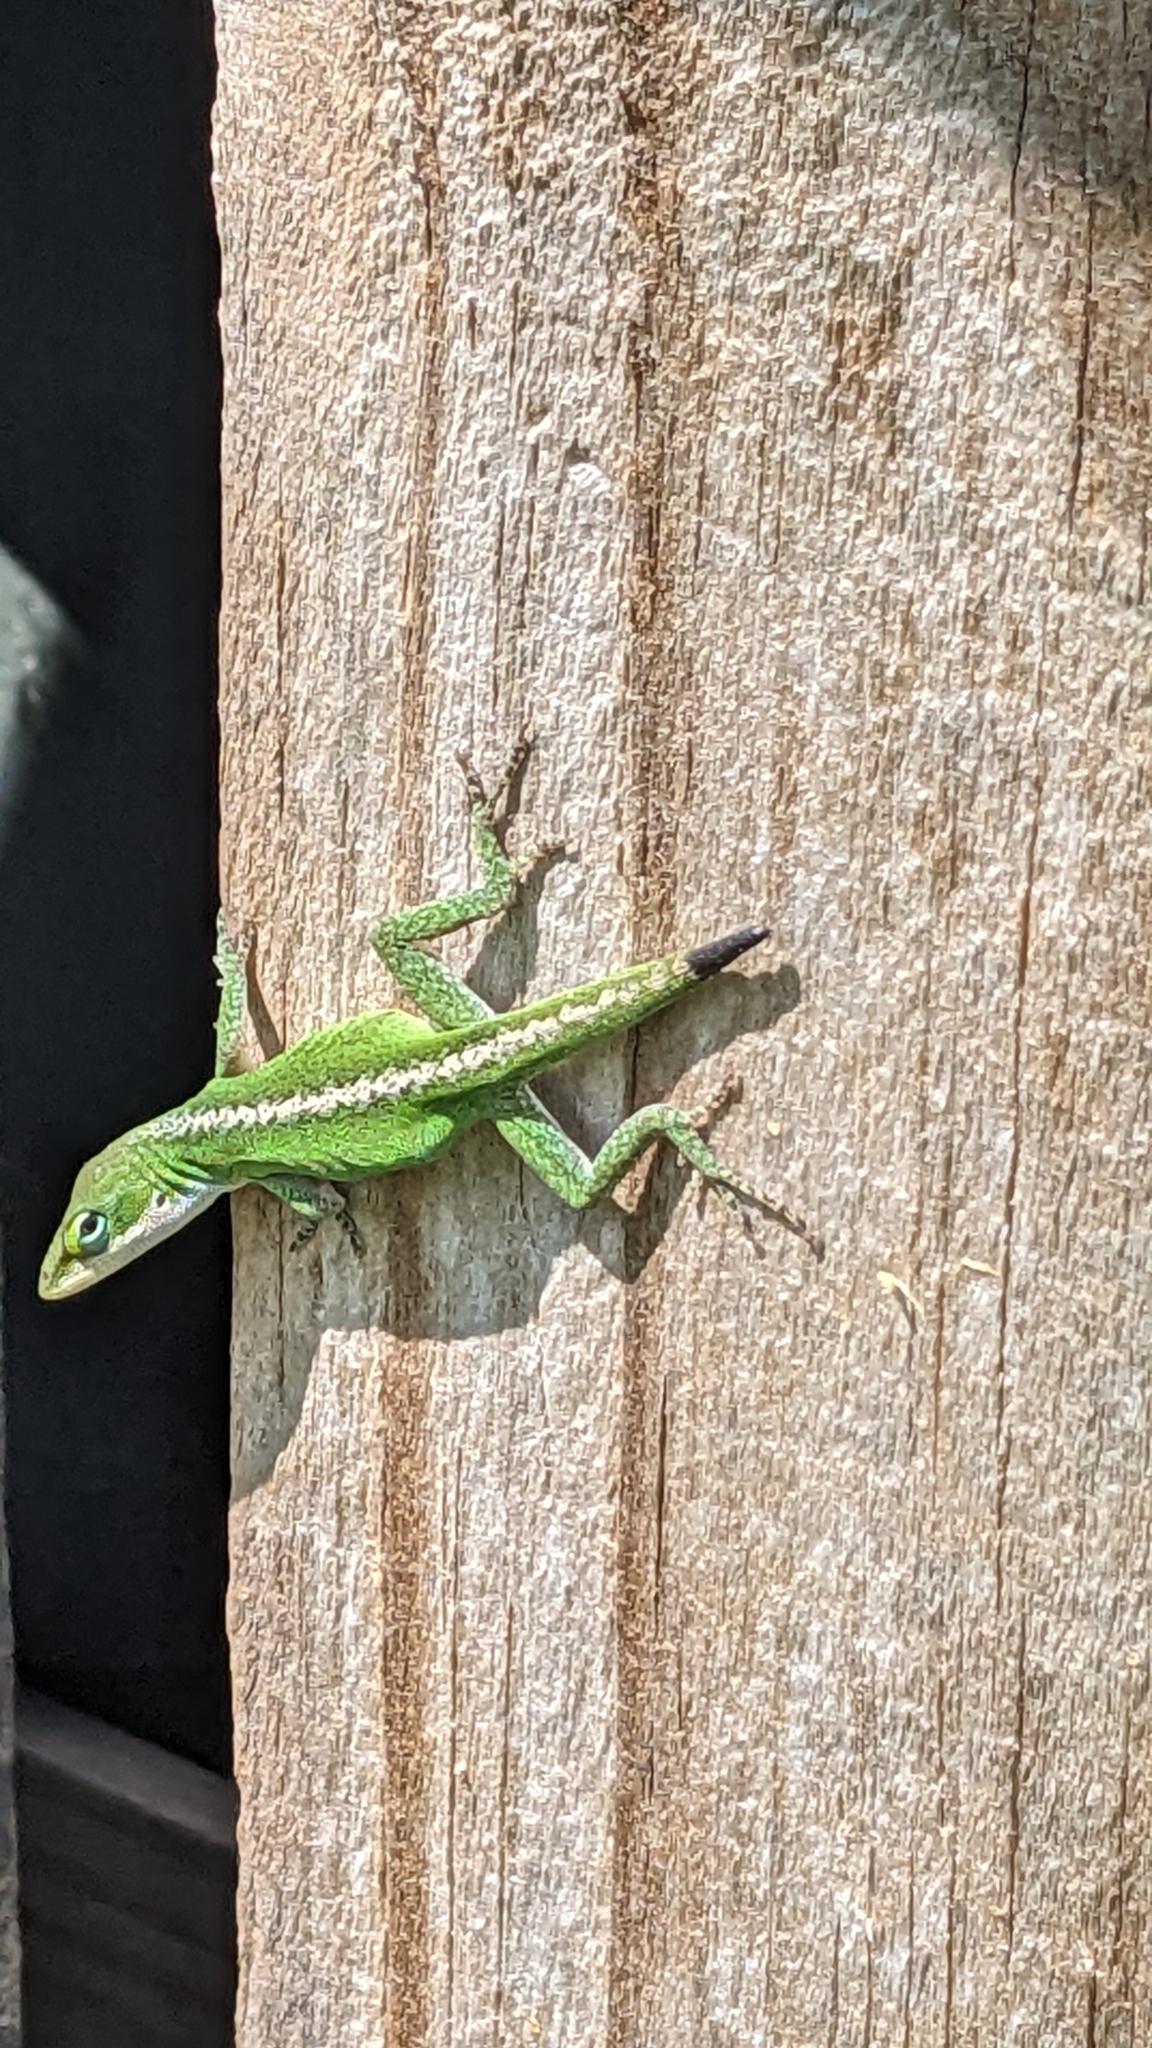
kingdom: Animalia
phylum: Chordata
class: Squamata
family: Dactyloidae
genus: Anolis
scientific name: Anolis carolinensis
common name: Green anole
